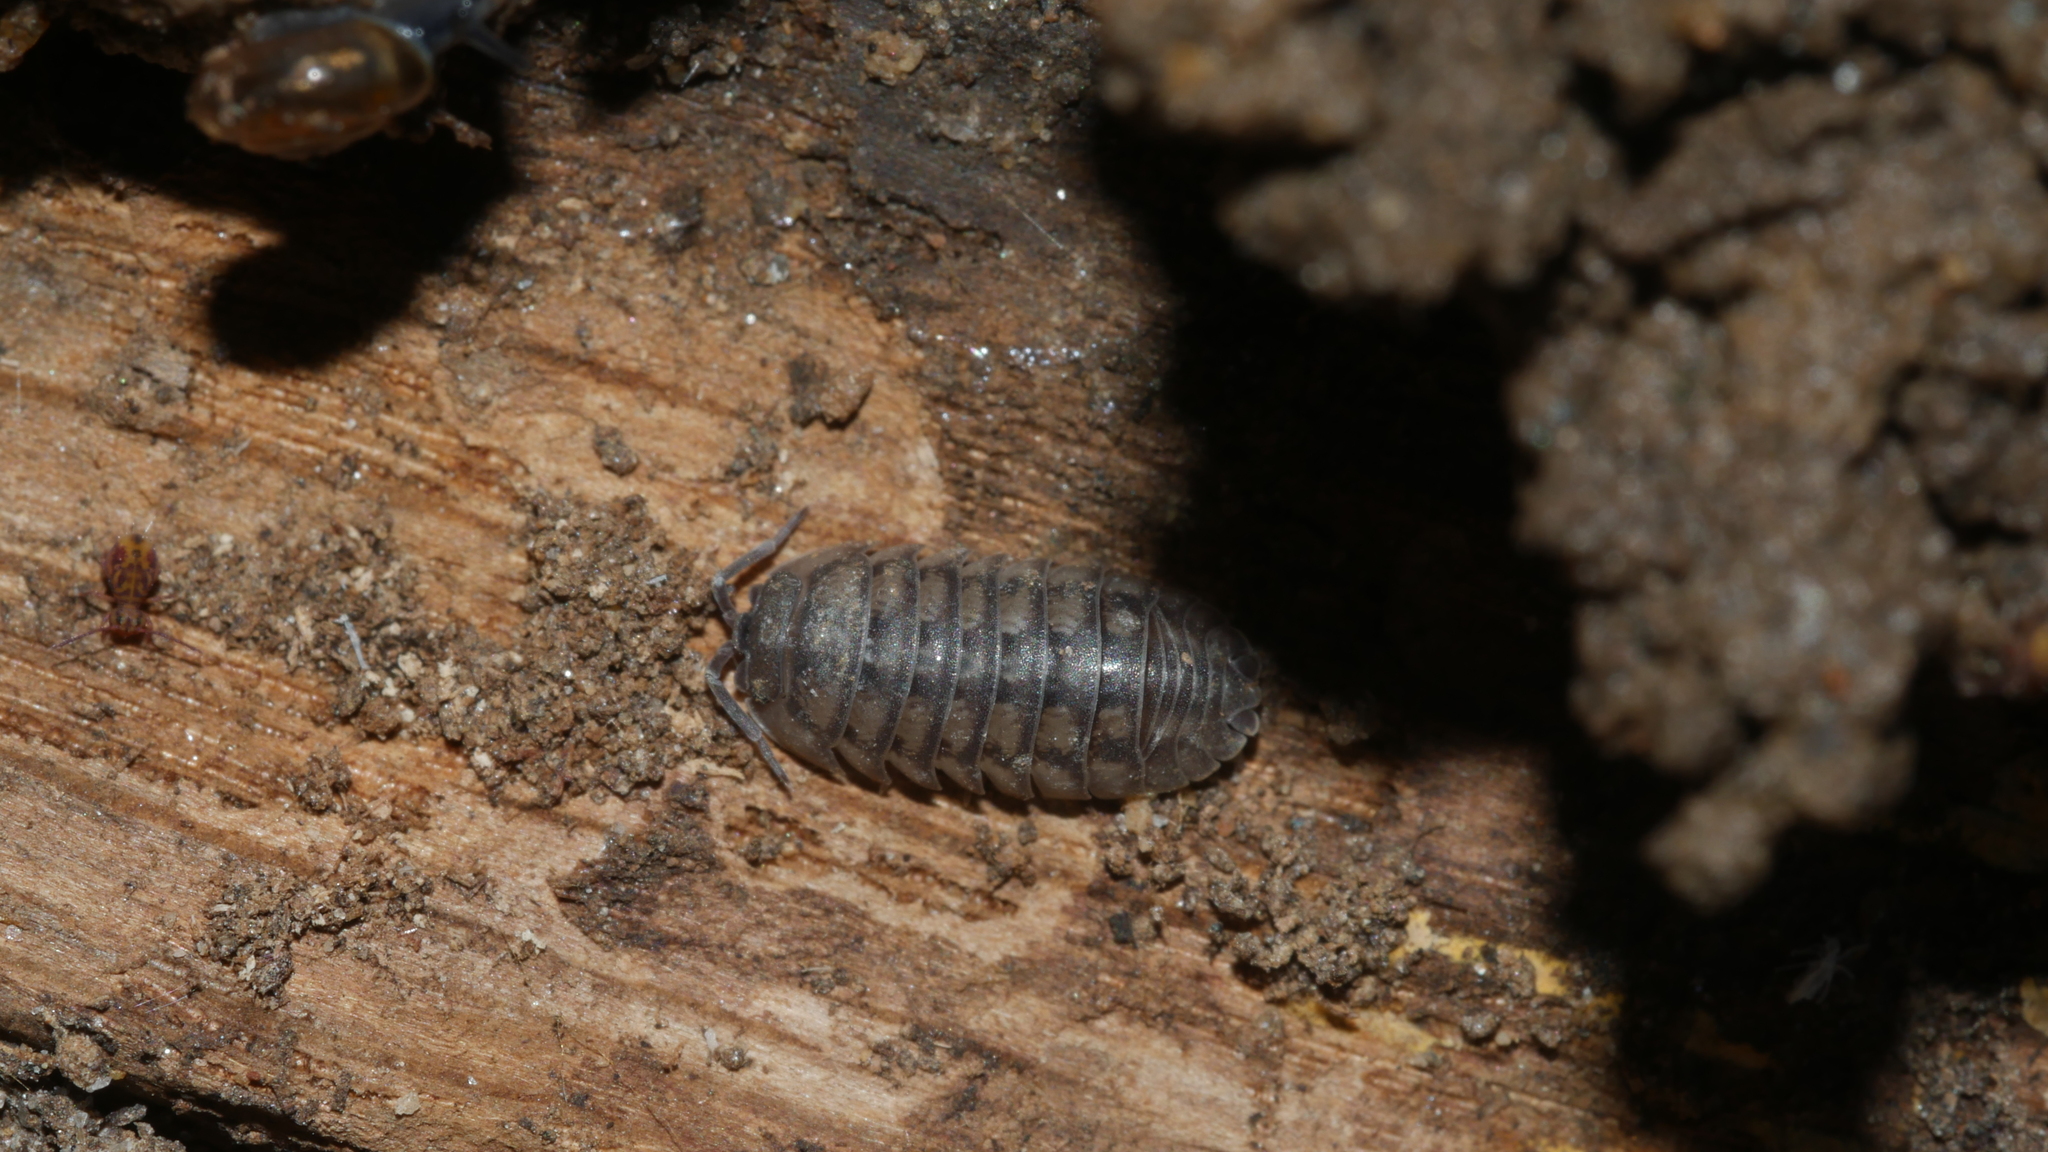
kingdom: Animalia
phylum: Arthropoda
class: Malacostraca
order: Isopoda
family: Armadillidiidae
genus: Armadillidium
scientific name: Armadillidium nasatum
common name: Isopod
